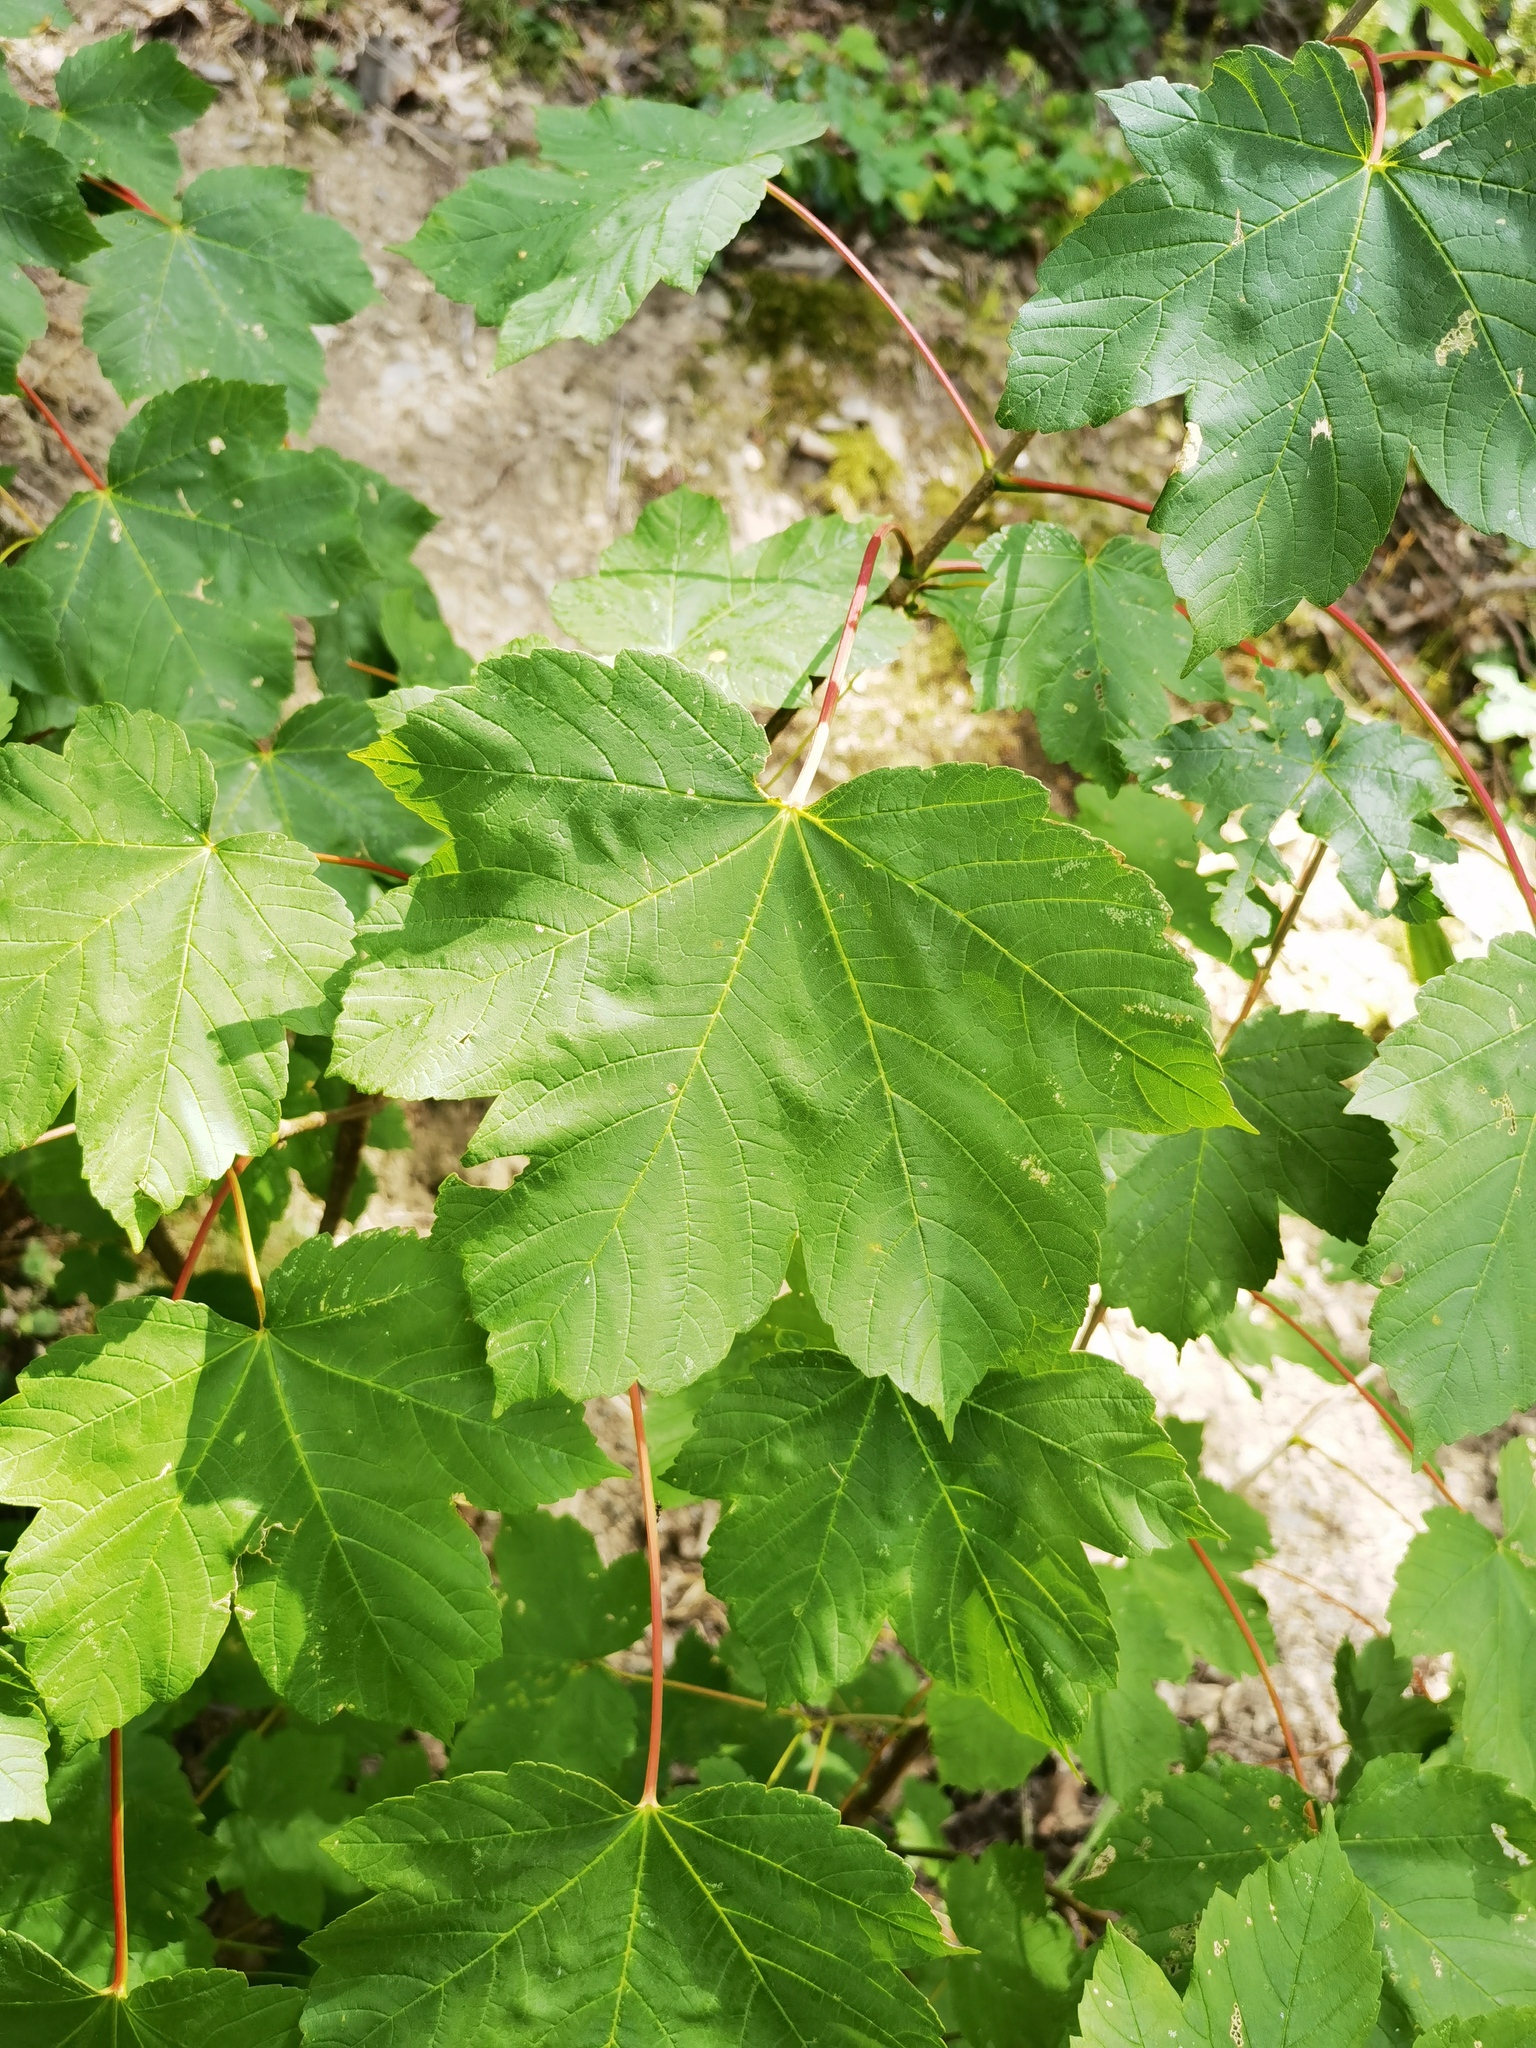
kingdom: Plantae
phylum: Tracheophyta
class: Magnoliopsida
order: Sapindales
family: Sapindaceae
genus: Acer
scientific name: Acer pseudoplatanus
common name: Sycamore
